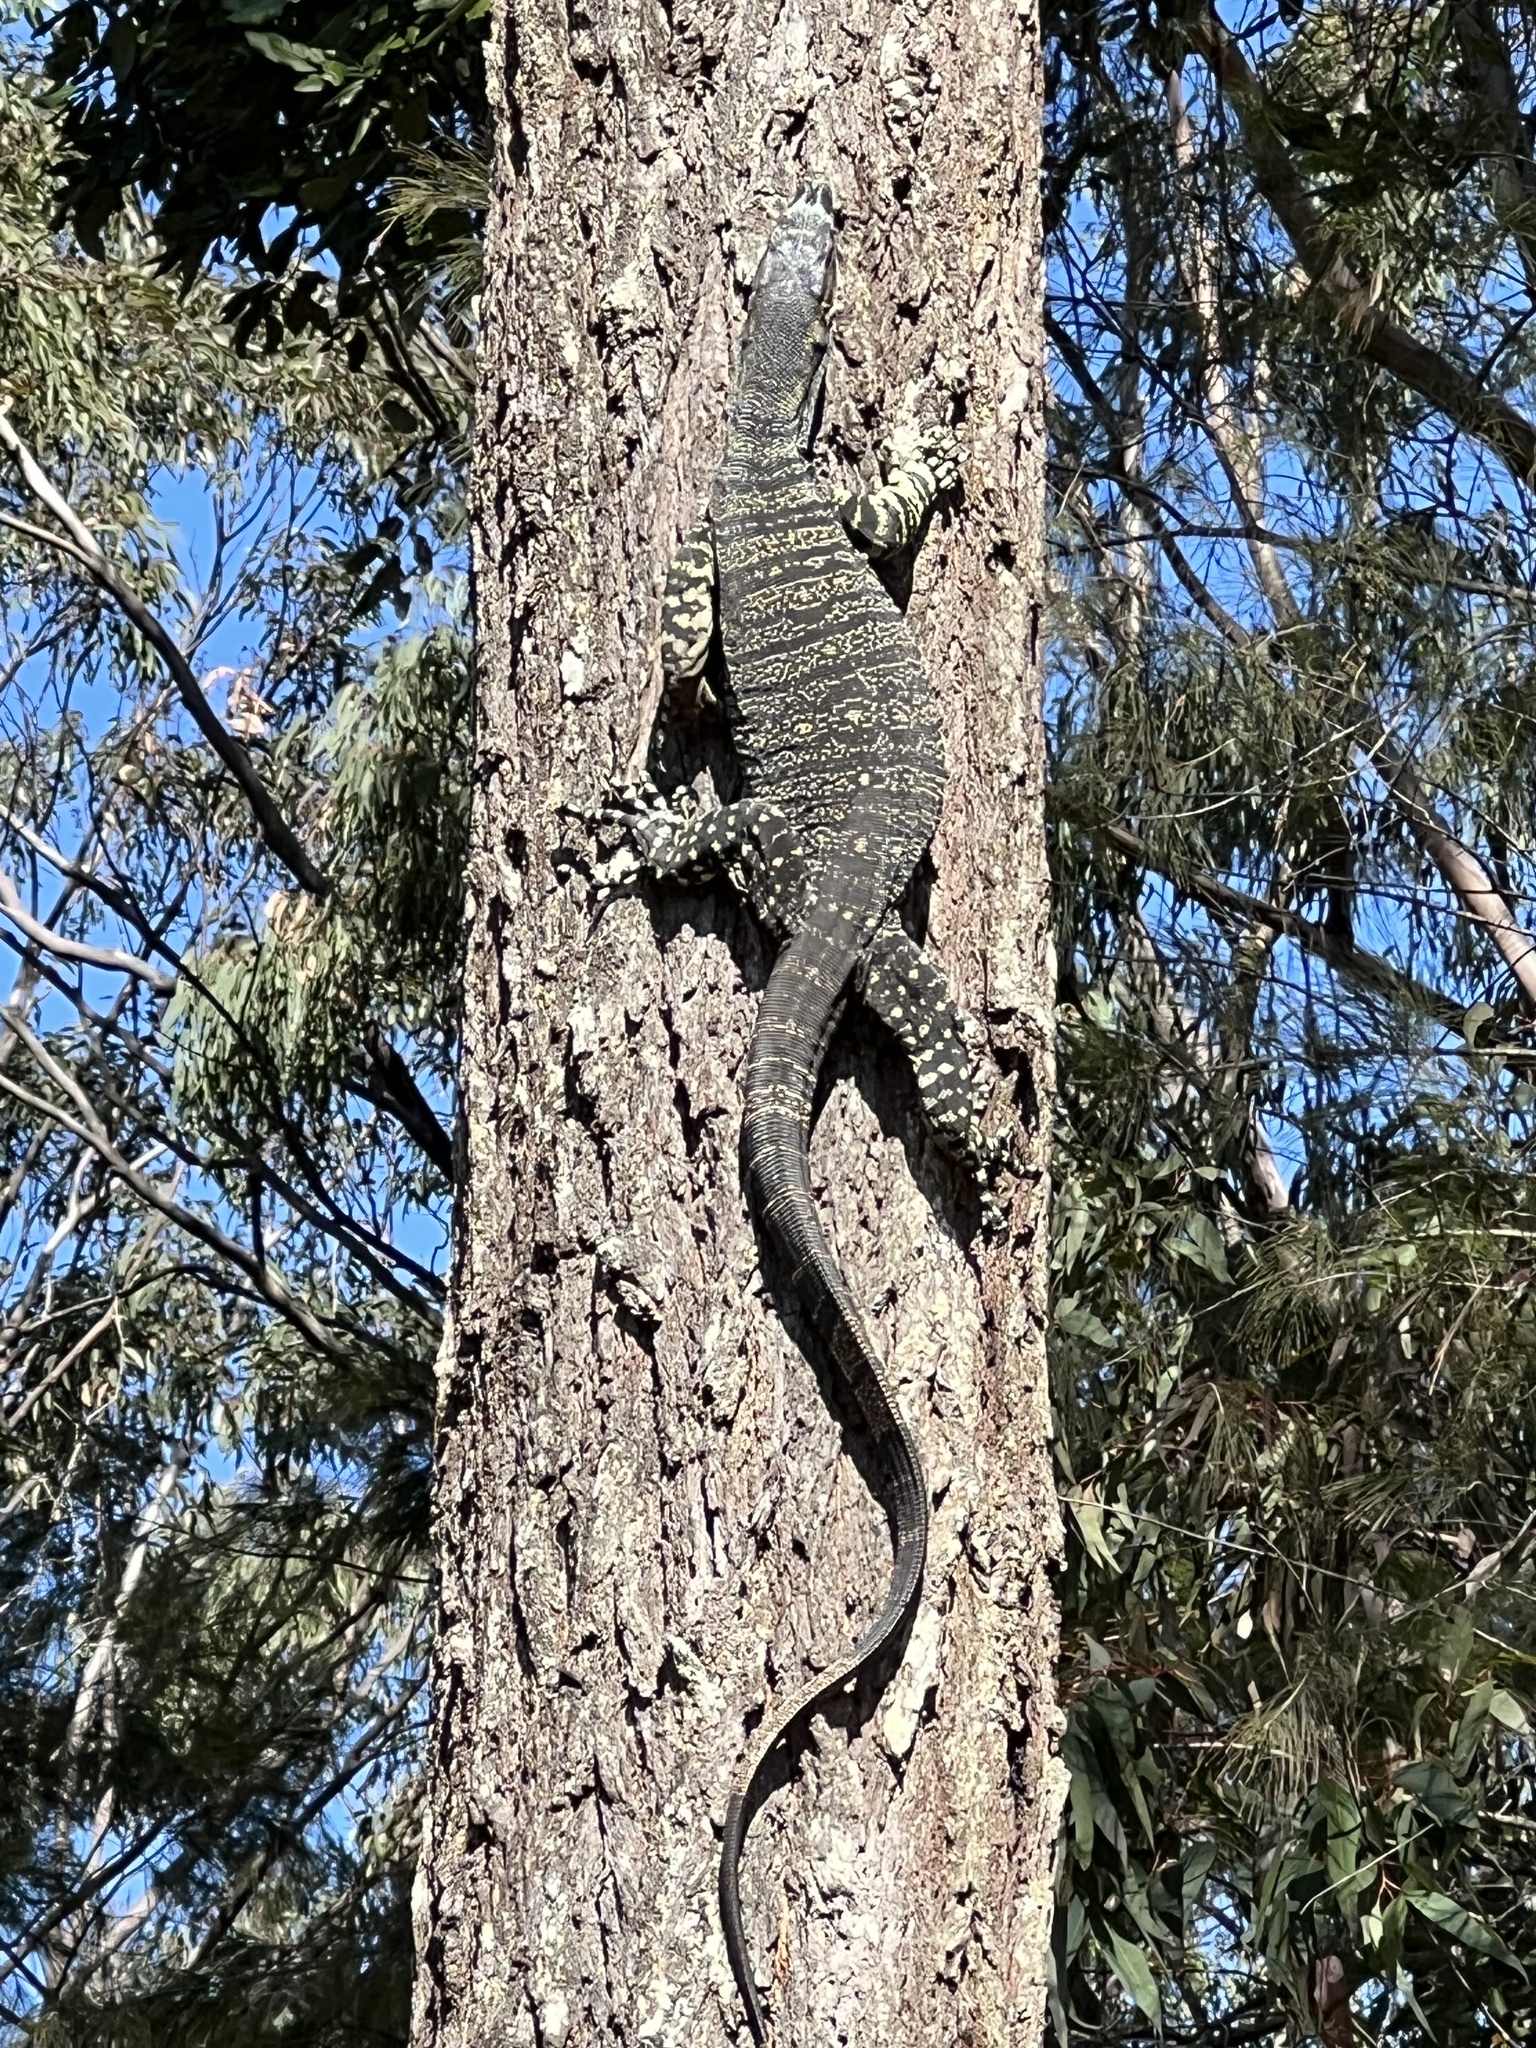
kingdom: Animalia
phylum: Chordata
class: Squamata
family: Varanidae
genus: Varanus
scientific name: Varanus varius
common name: Lace monitor
